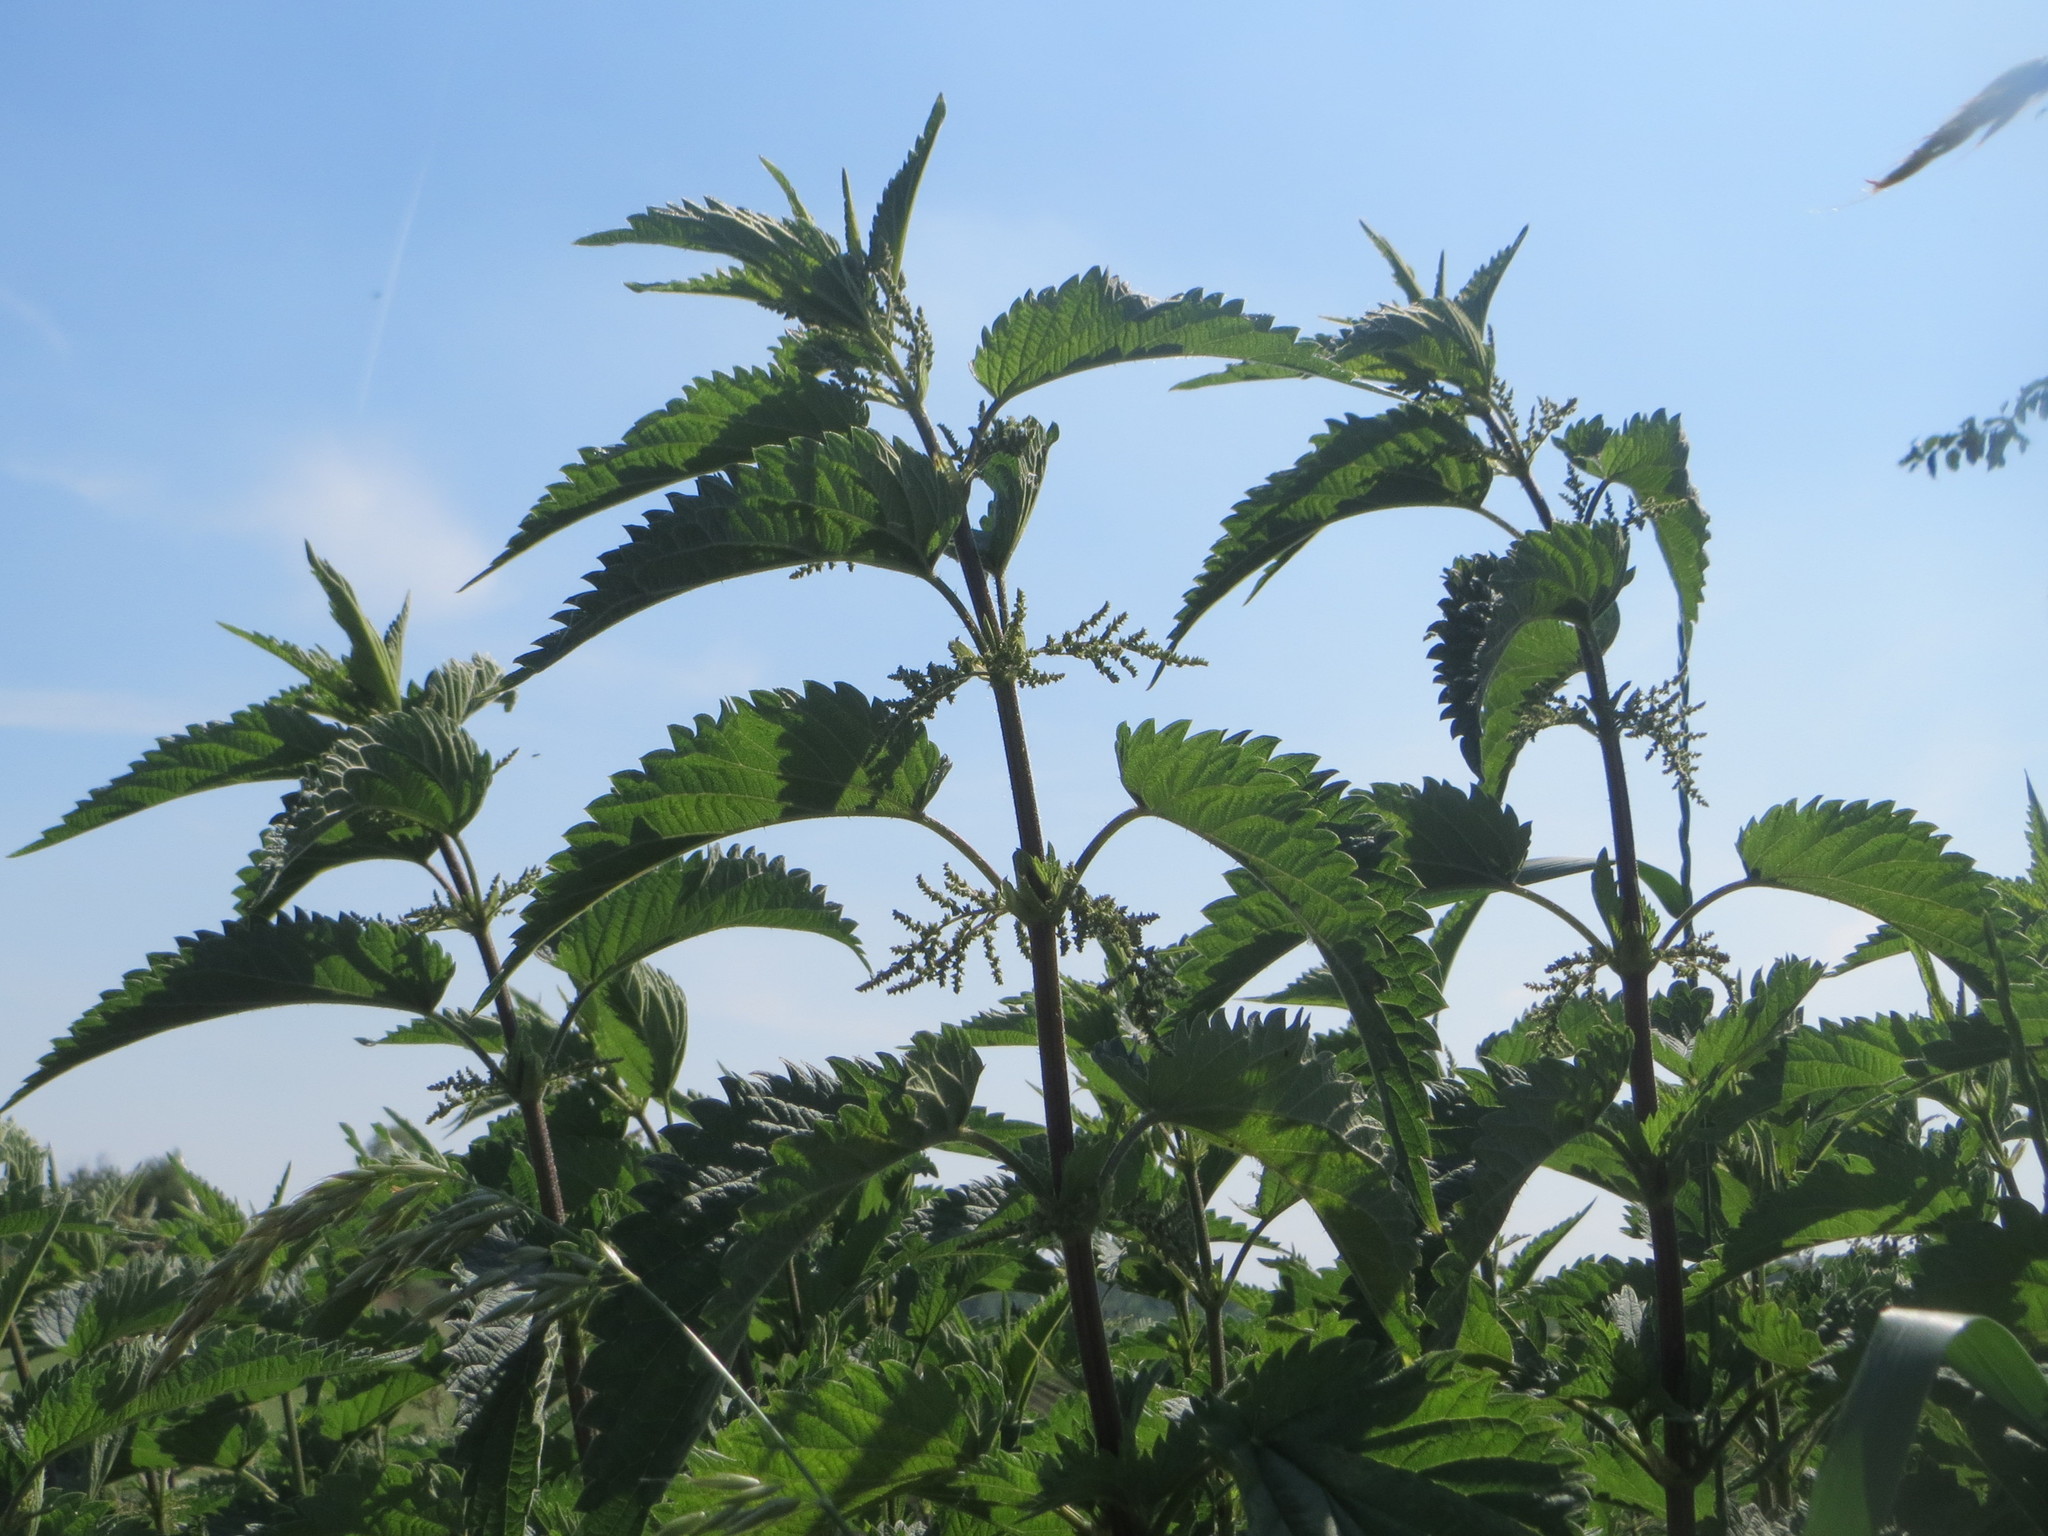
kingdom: Plantae
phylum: Tracheophyta
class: Magnoliopsida
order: Rosales
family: Urticaceae
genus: Urtica
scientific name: Urtica dioica
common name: Common nettle
